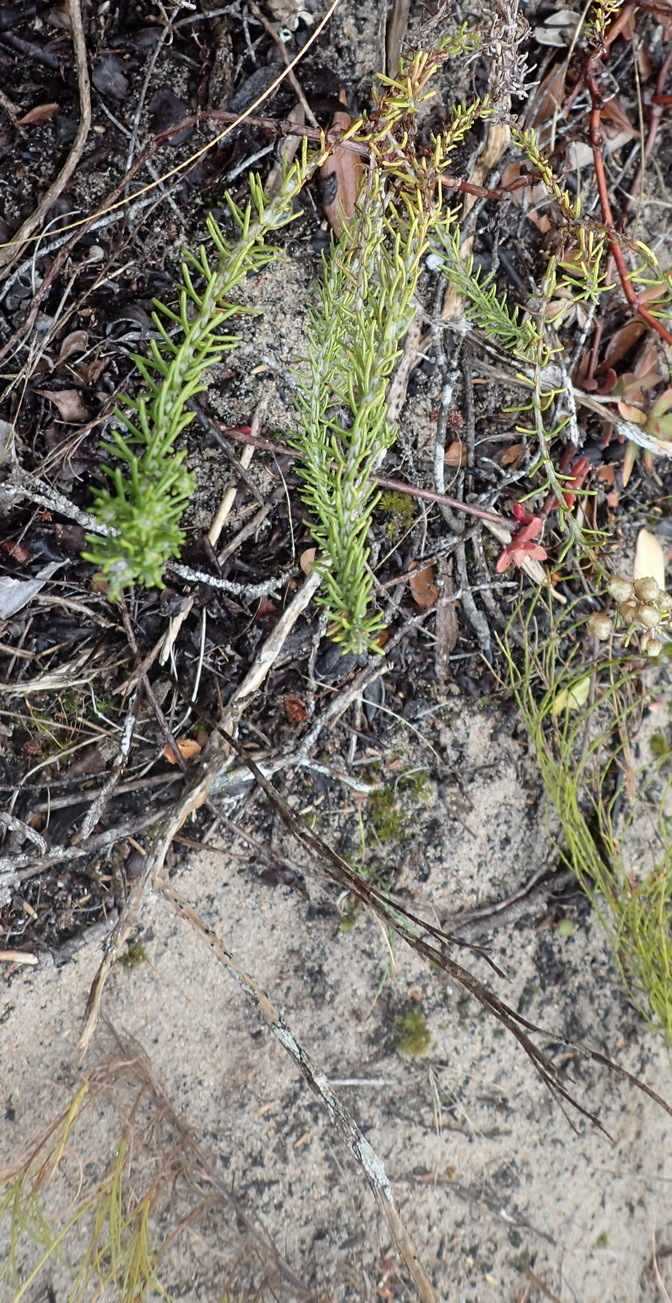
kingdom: Plantae
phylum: Tracheophyta
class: Magnoliopsida
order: Asterales
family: Asteraceae
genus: Helichrysum
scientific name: Helichrysum teretifolium
